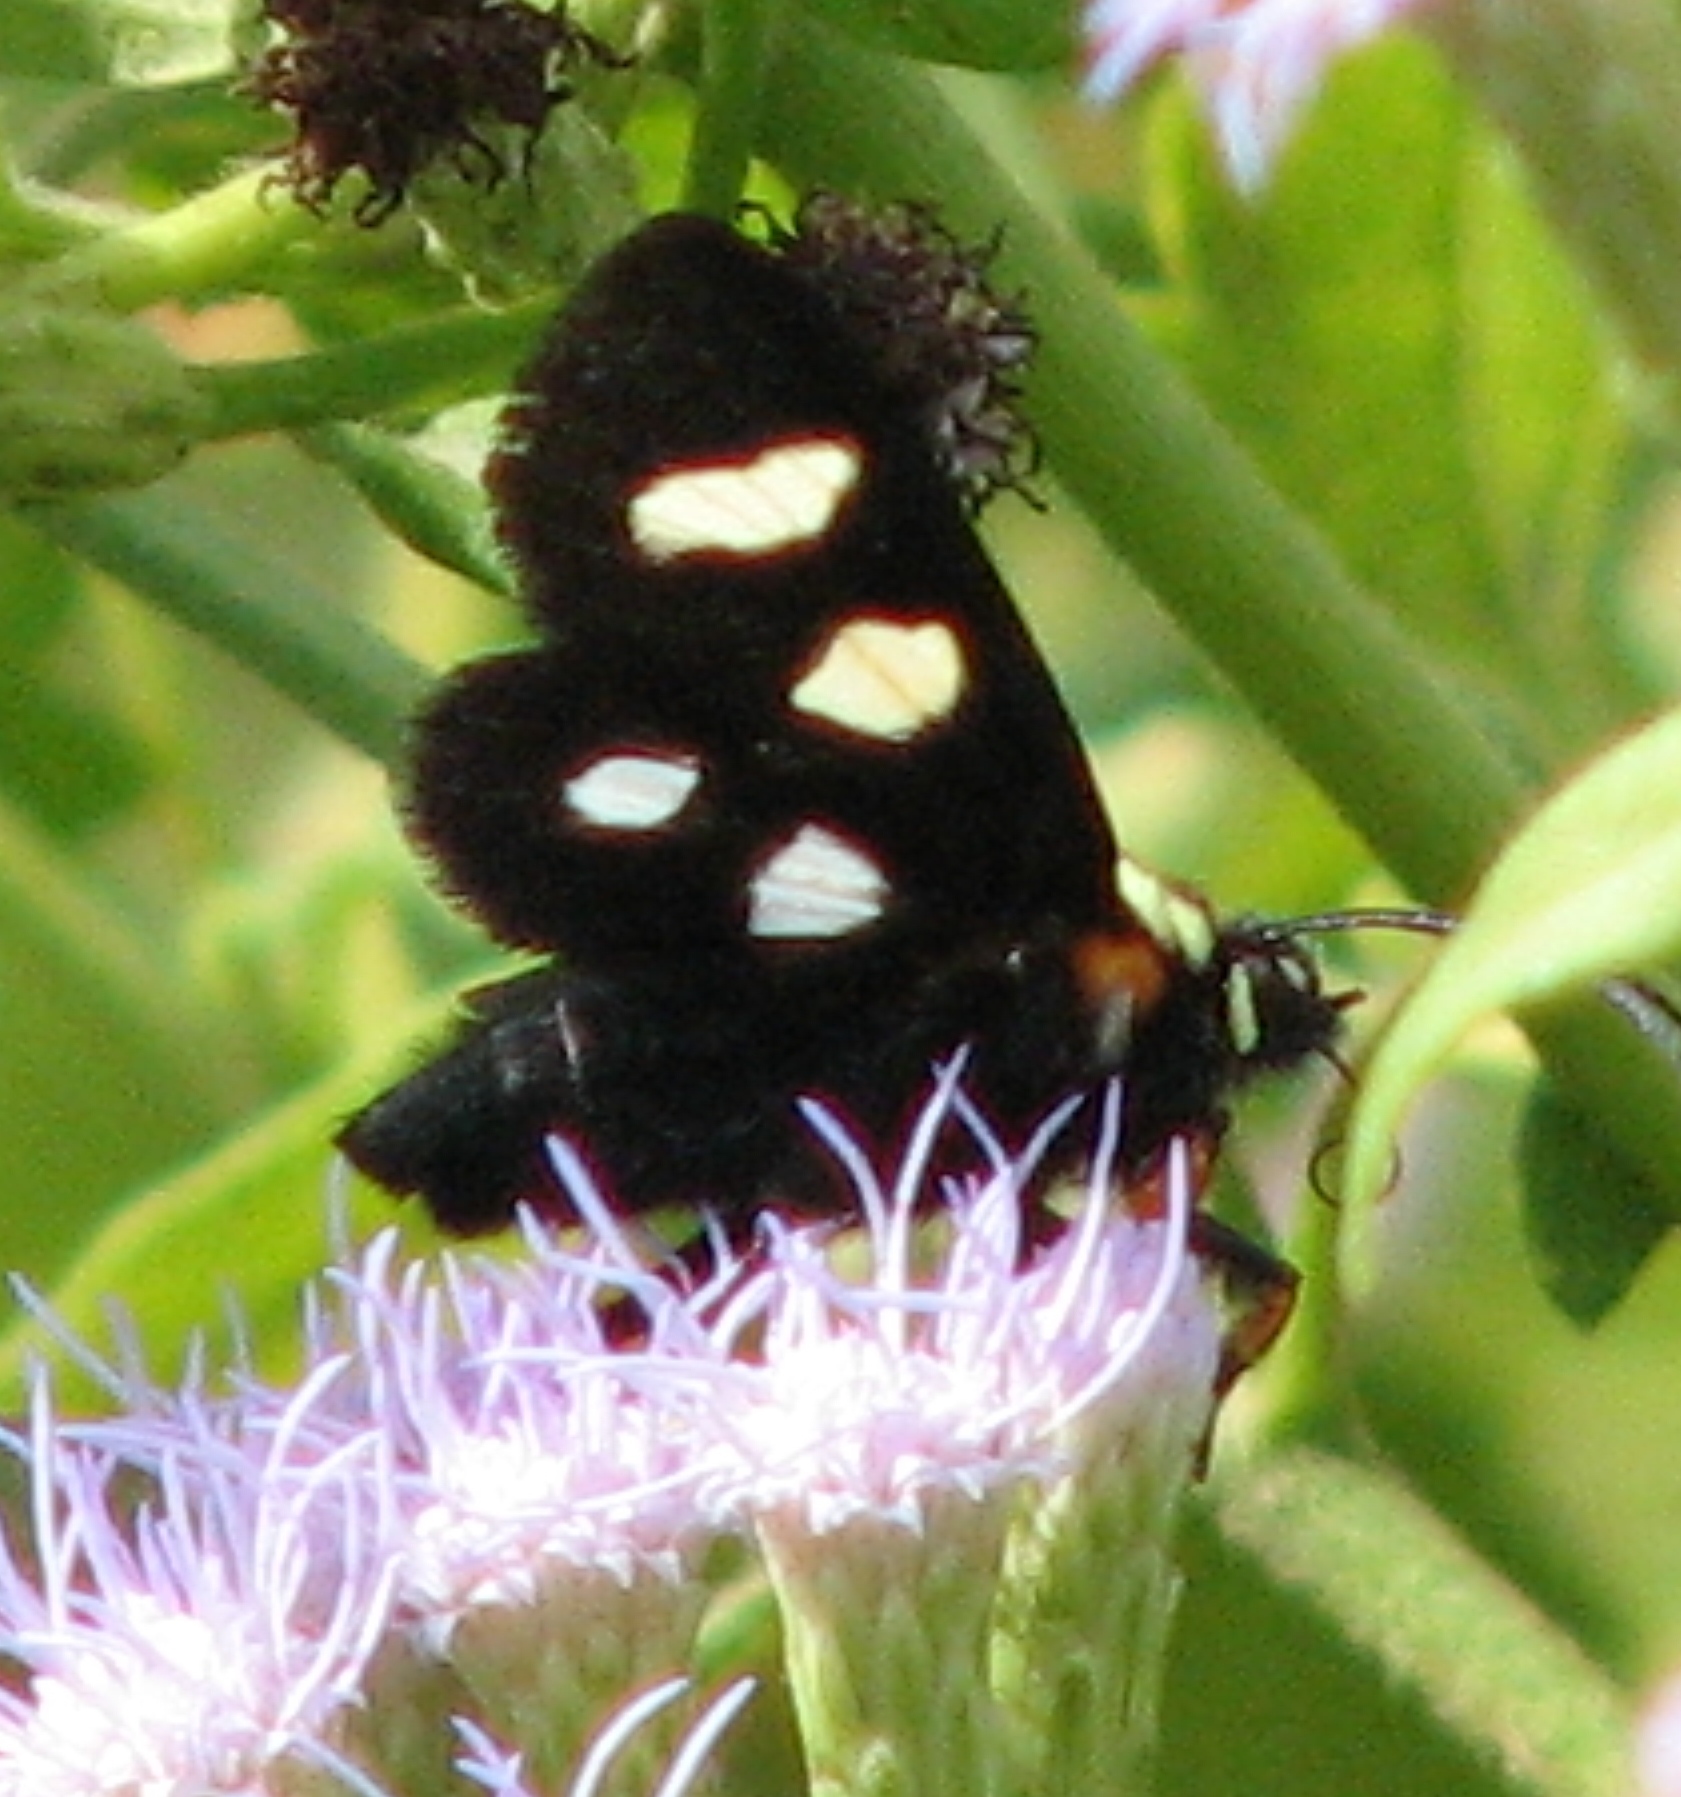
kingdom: Animalia
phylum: Arthropoda
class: Insecta
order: Lepidoptera
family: Noctuidae
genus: Alypia
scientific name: Alypia disparata
